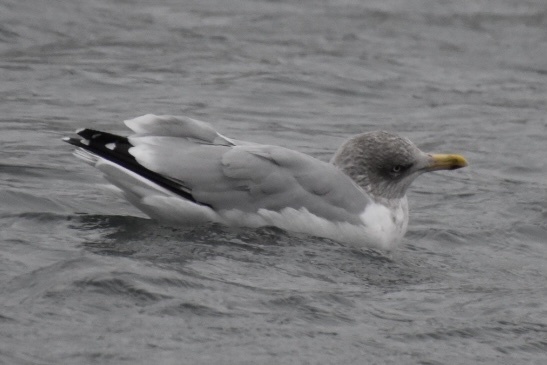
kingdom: Animalia
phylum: Chordata
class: Aves
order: Charadriiformes
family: Laridae
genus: Larus
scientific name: Larus argentatus
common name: Herring gull
